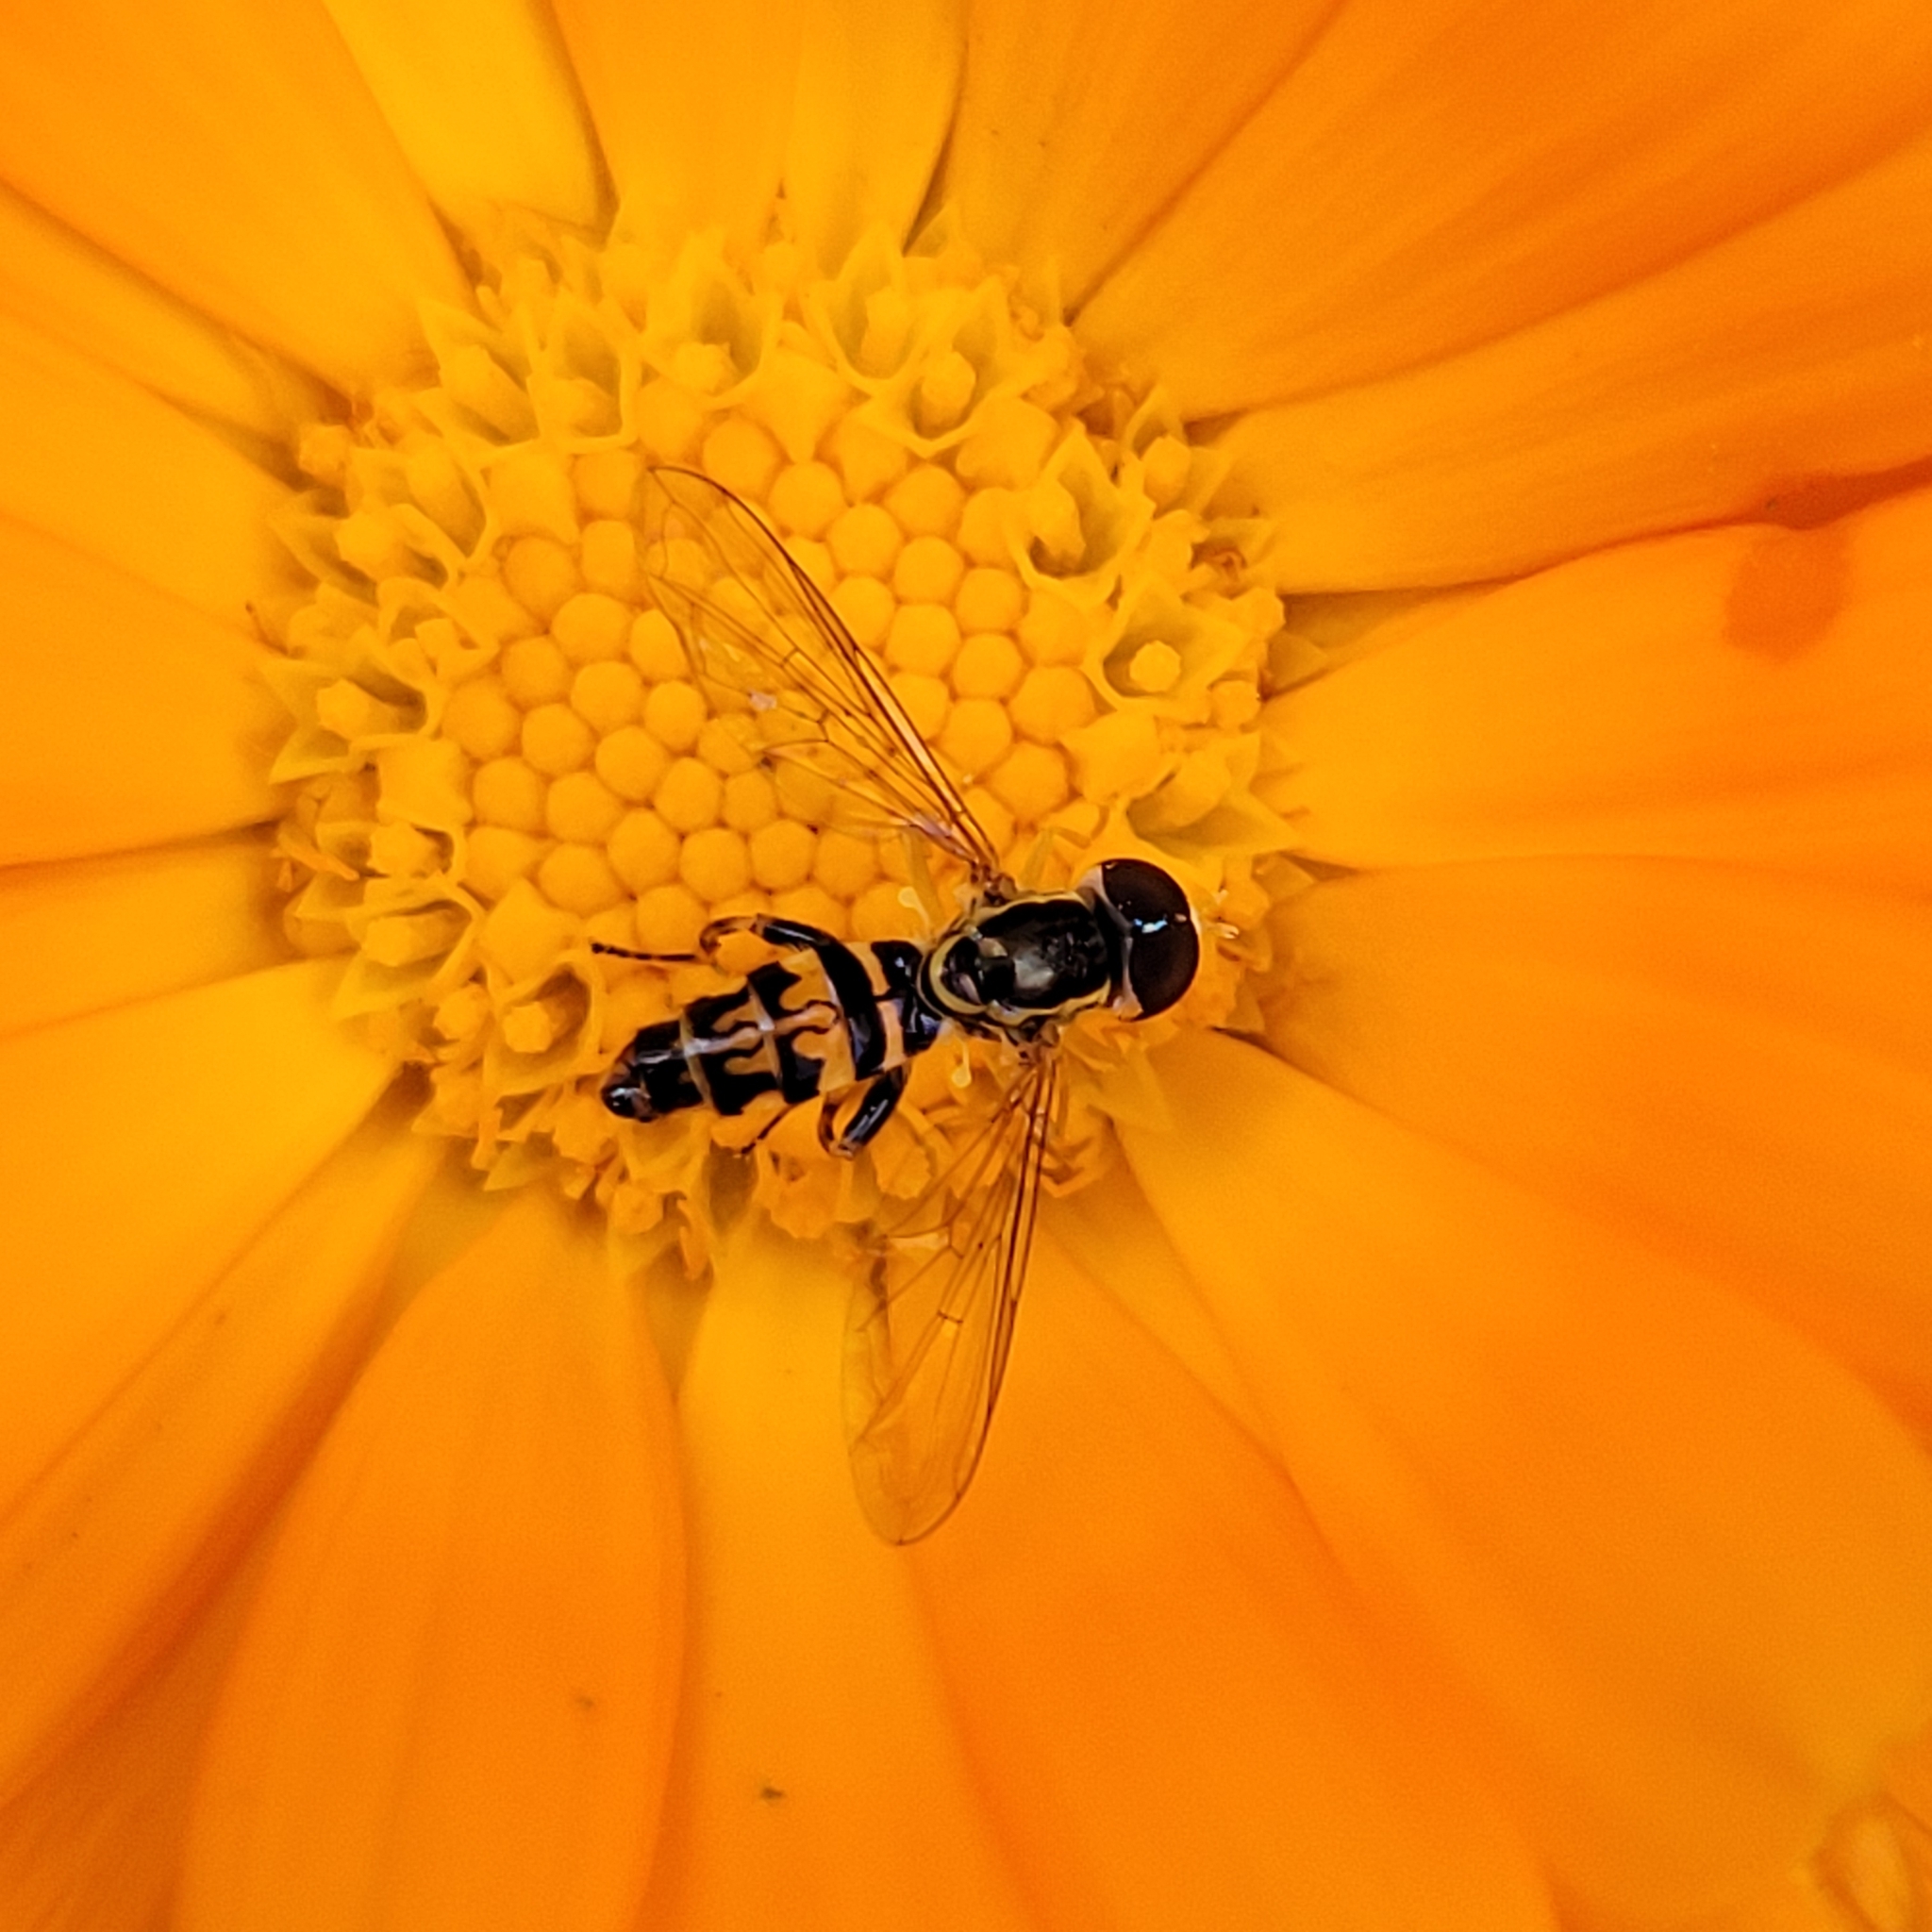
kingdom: Animalia
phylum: Arthropoda
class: Insecta
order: Diptera
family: Syrphidae
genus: Toxomerus
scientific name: Toxomerus geminatus
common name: Eastern calligrapher
